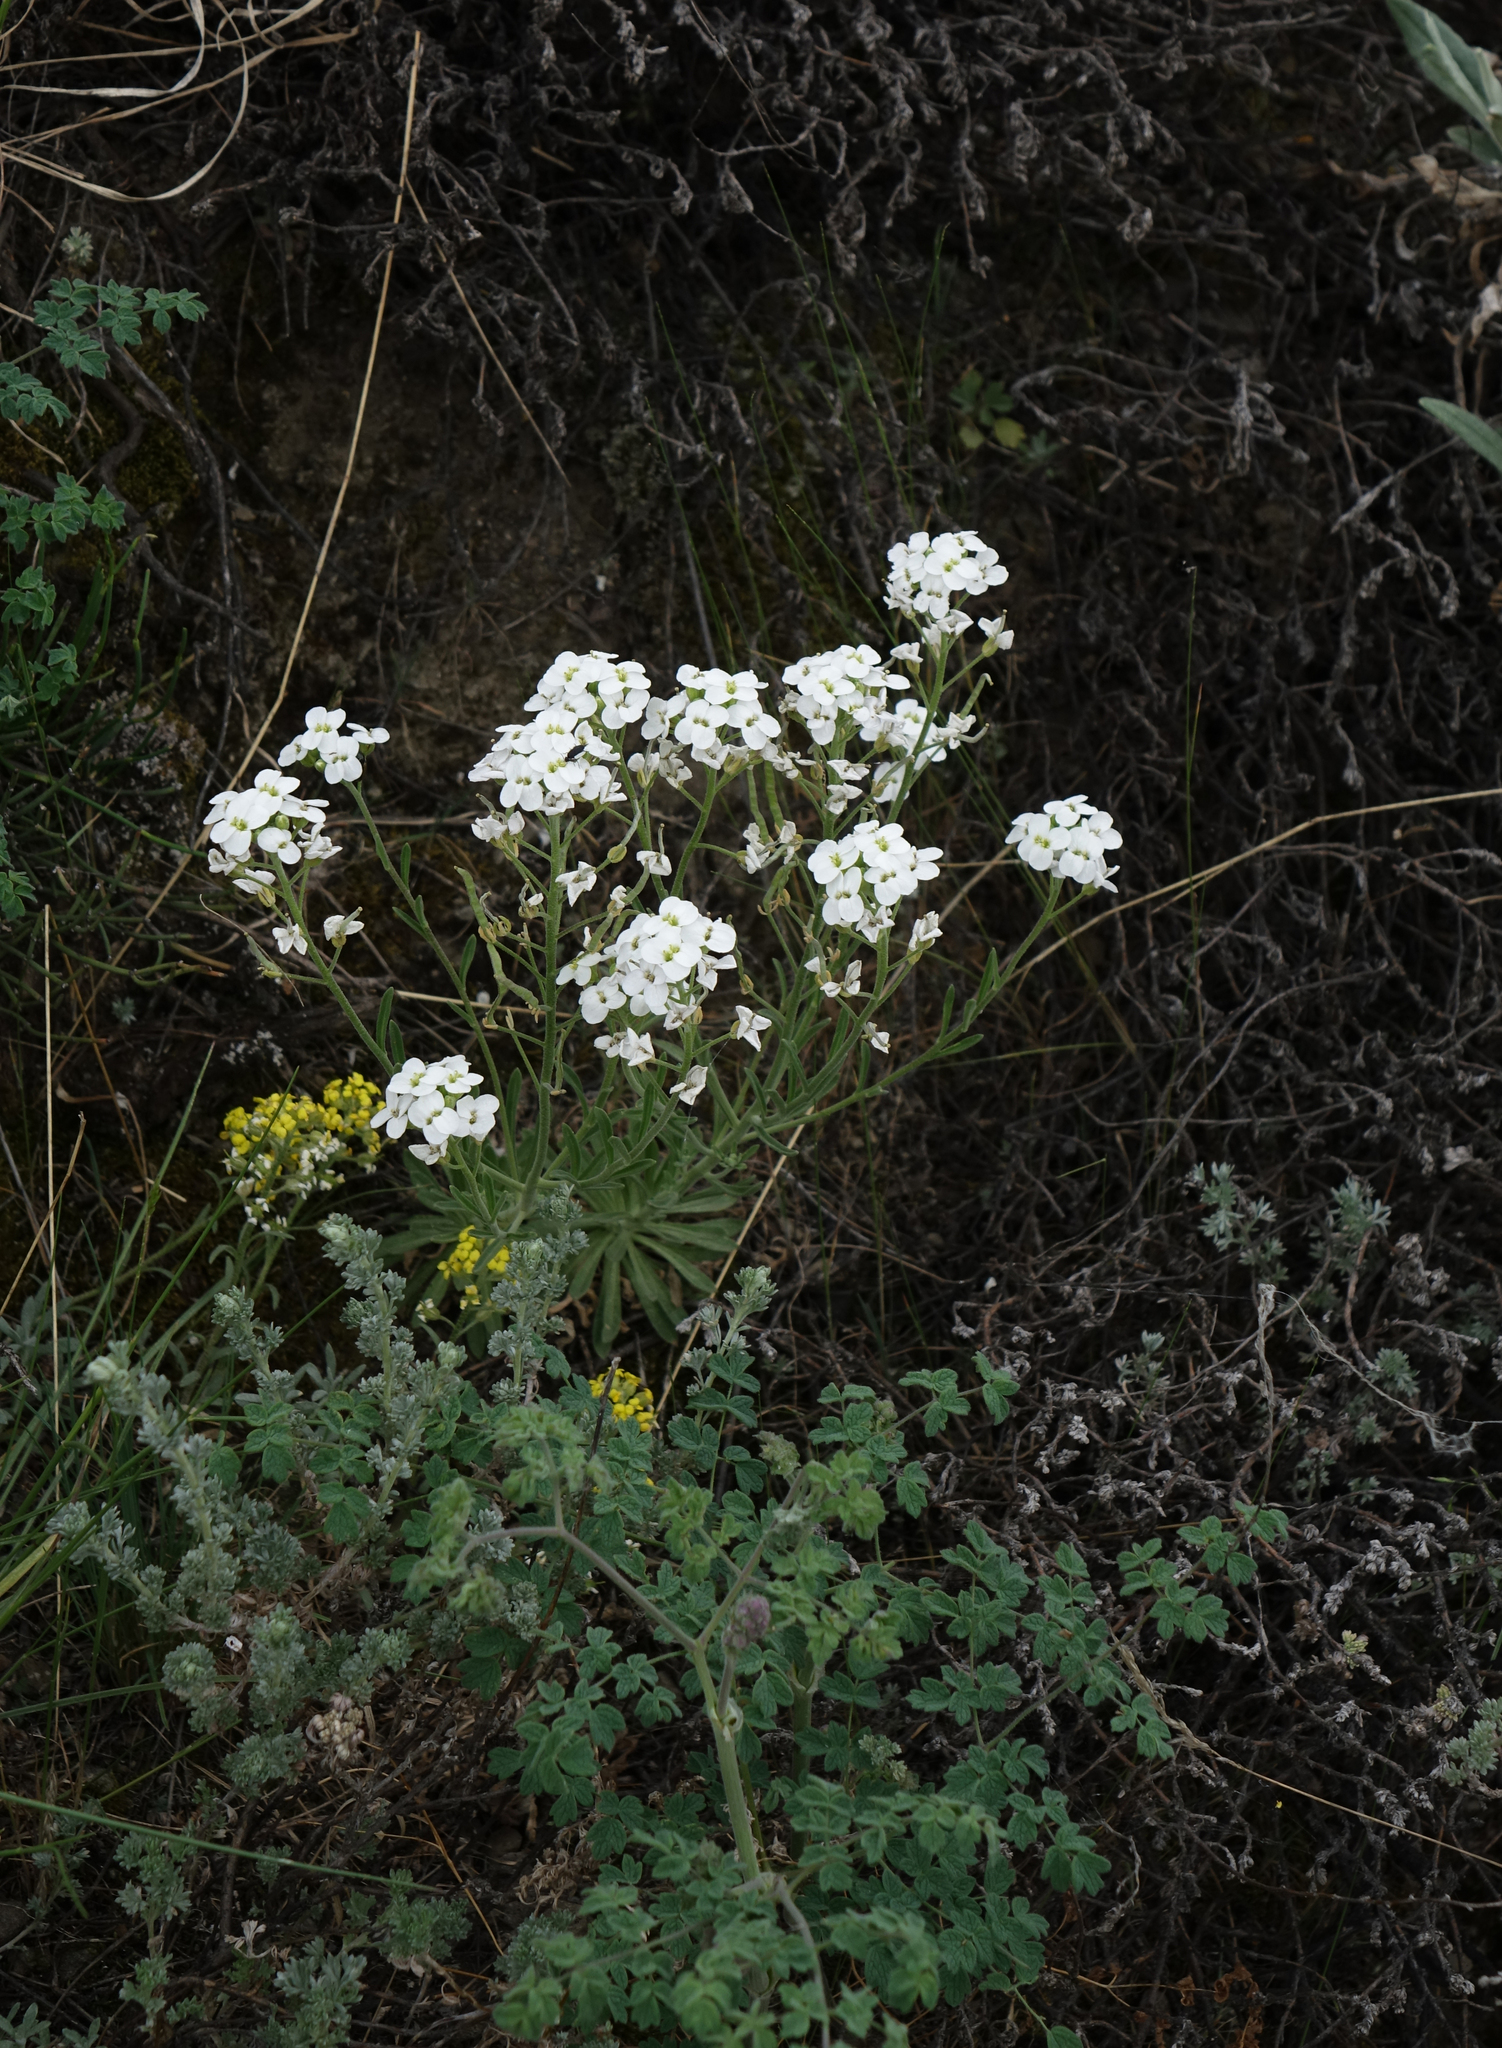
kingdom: Plantae
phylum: Tracheophyta
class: Magnoliopsida
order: Brassicales
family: Brassicaceae
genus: Stevenia
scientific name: Stevenia incarnata
